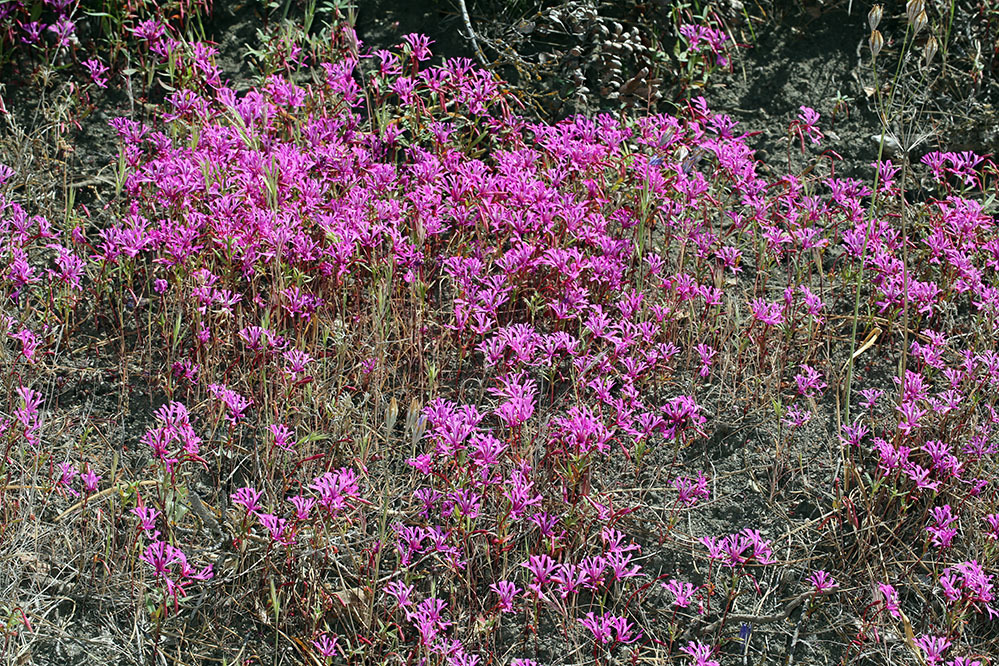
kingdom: Plantae
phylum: Tracheophyta
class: Magnoliopsida
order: Myrtales
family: Onagraceae
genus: Clarkia
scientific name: Clarkia concinna
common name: Red-ribbons
